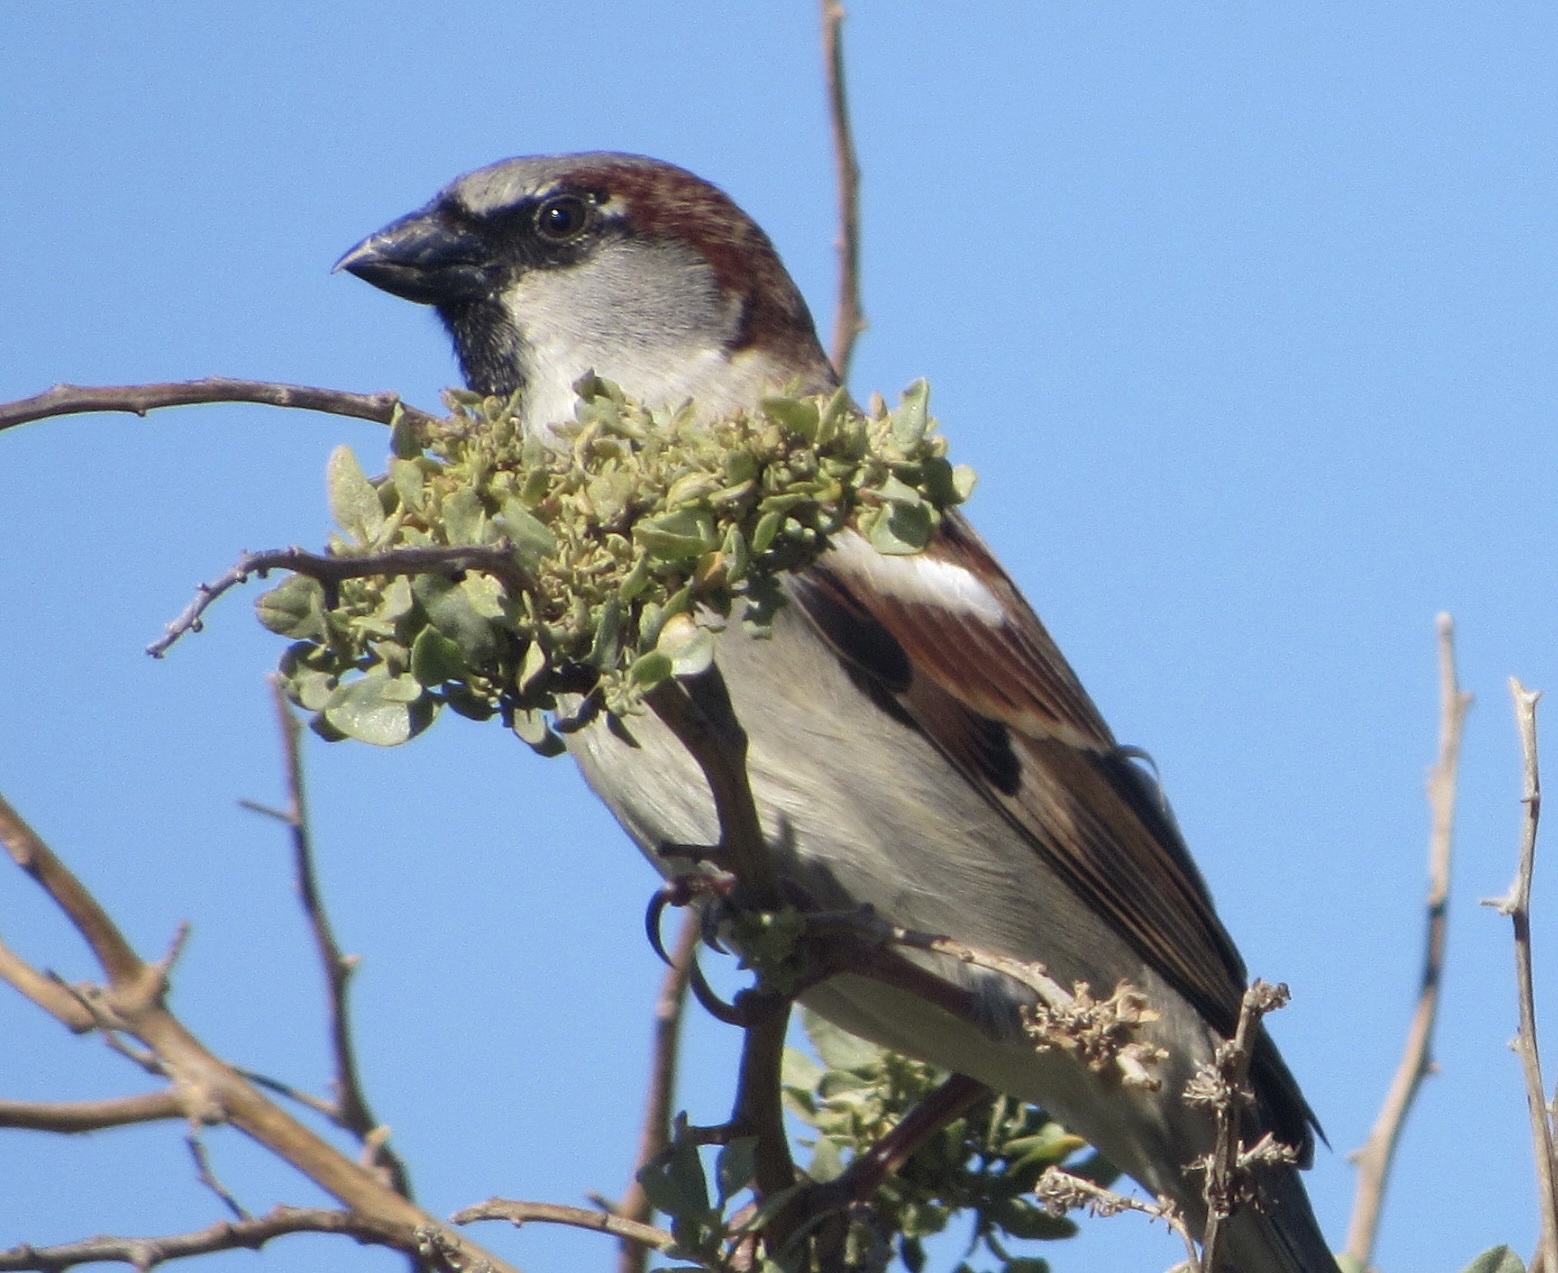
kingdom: Animalia
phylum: Chordata
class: Aves
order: Passeriformes
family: Passeridae
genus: Passer
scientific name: Passer domesticus
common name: House sparrow
